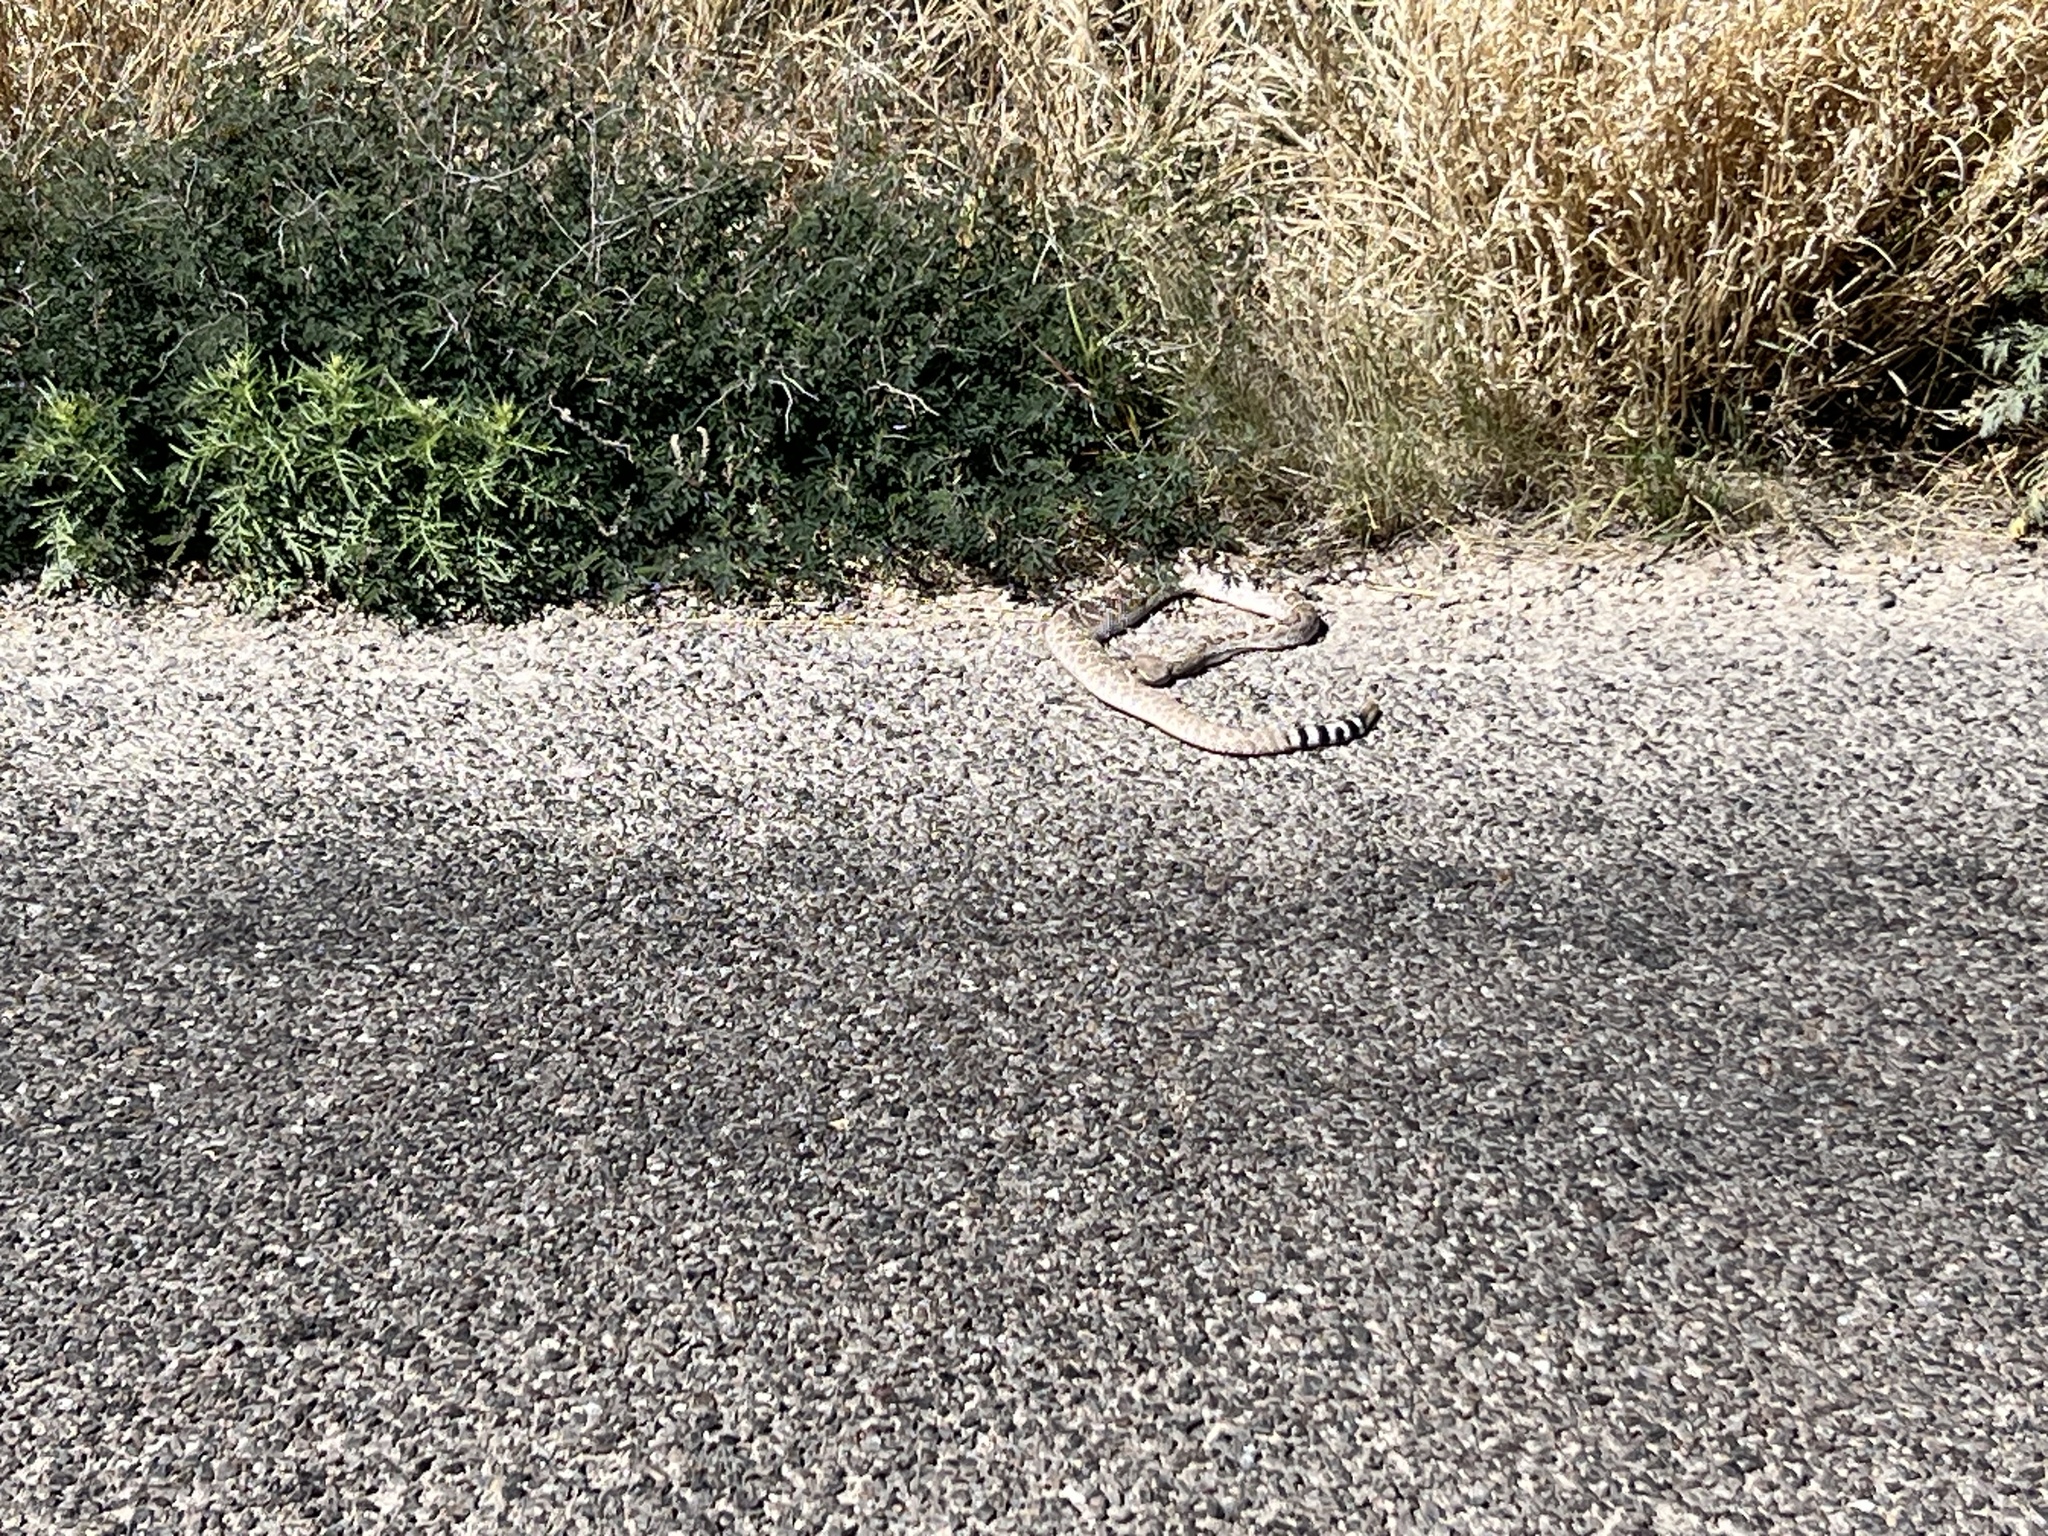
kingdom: Animalia
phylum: Chordata
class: Squamata
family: Viperidae
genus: Crotalus
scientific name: Crotalus atrox
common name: Western diamond-backed rattlesnake
